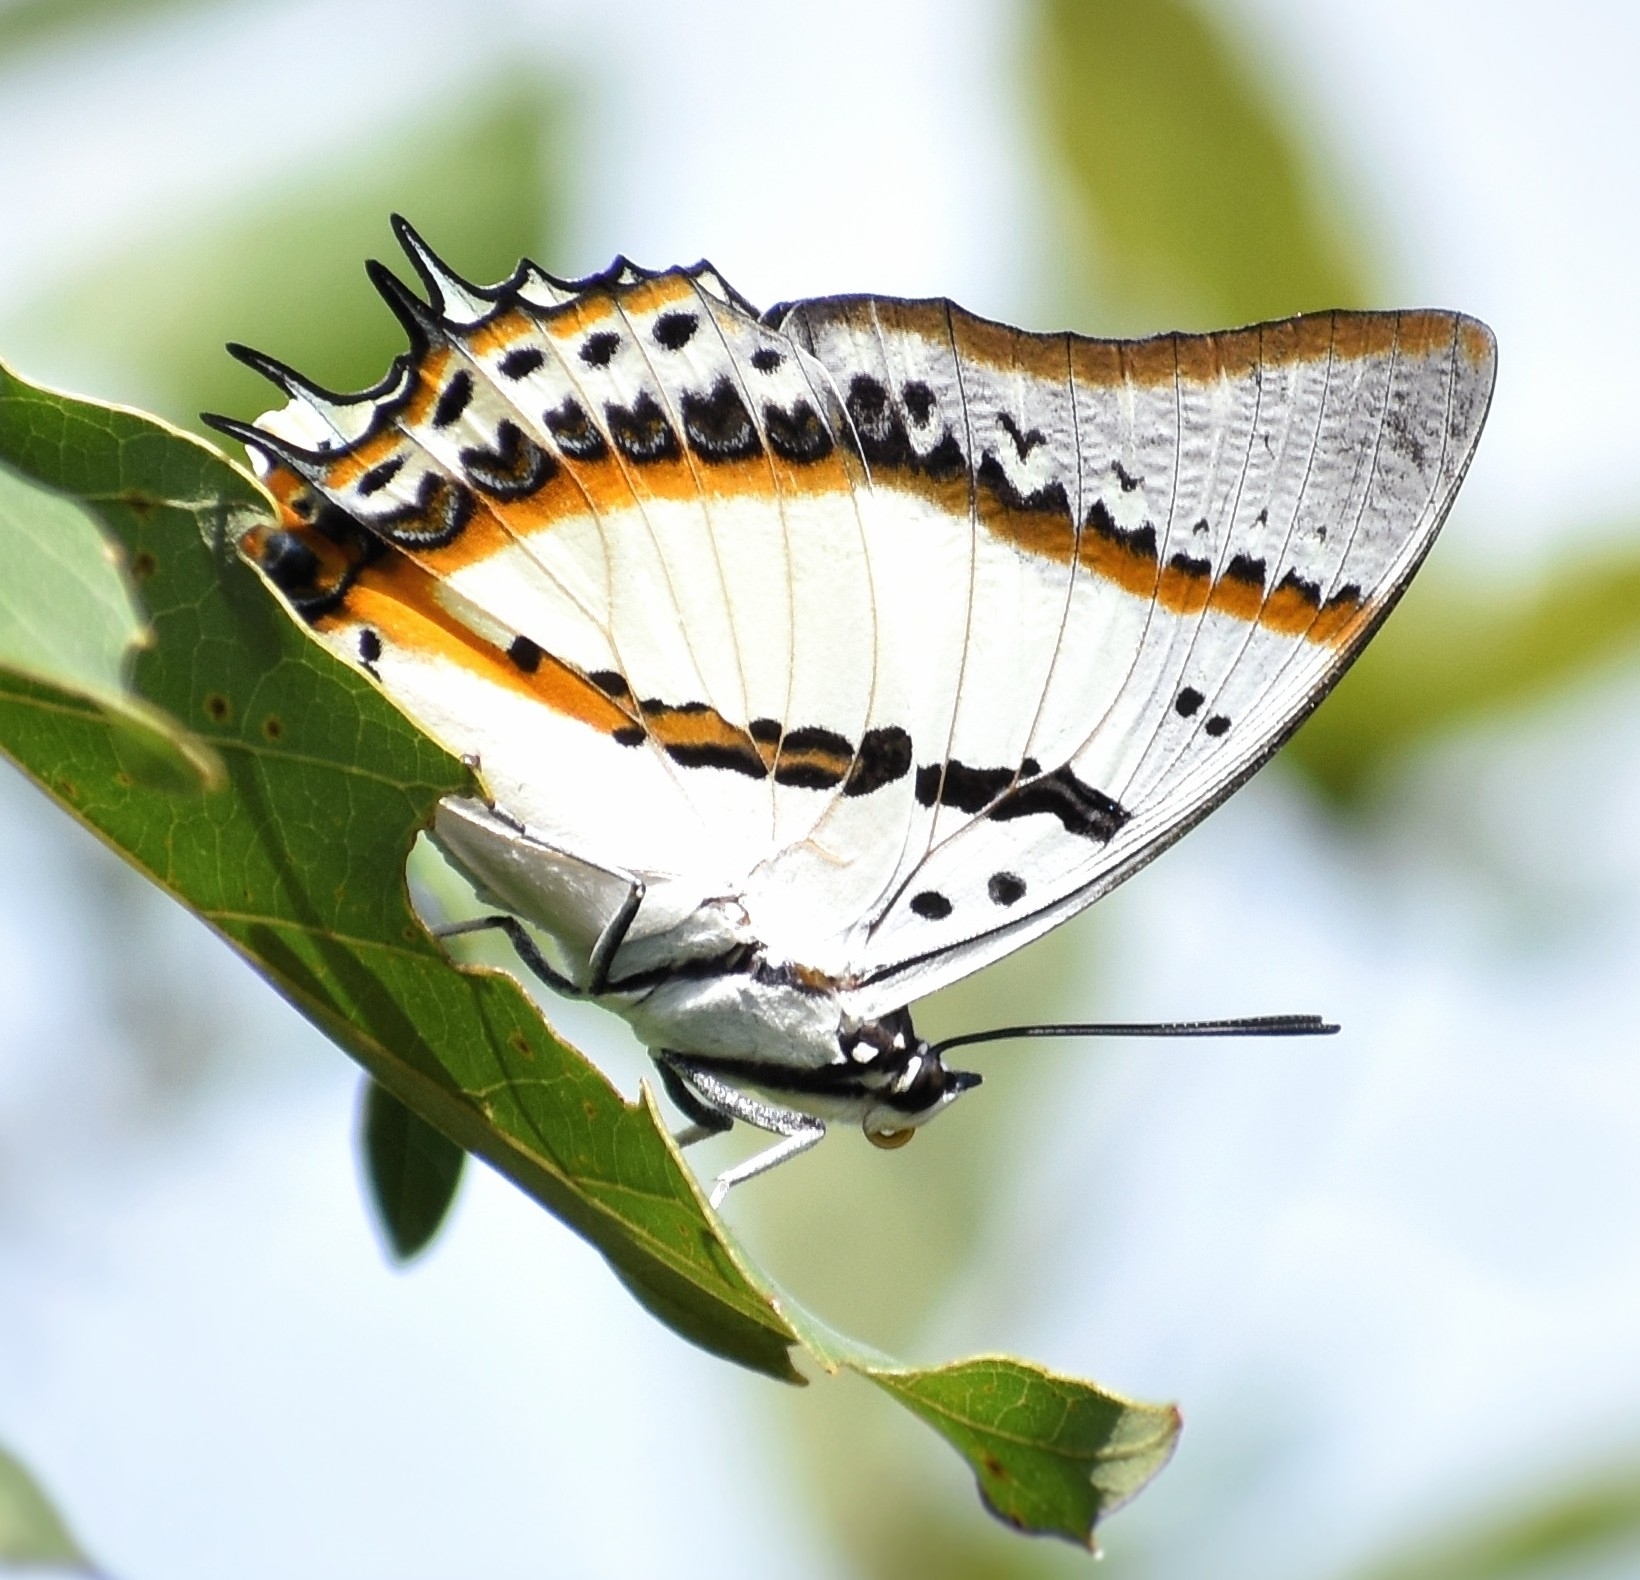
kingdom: Animalia
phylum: Arthropoda
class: Insecta
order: Lepidoptera
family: Nymphalidae
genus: Polyura
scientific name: Polyura nepenthes
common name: Shan nawab
